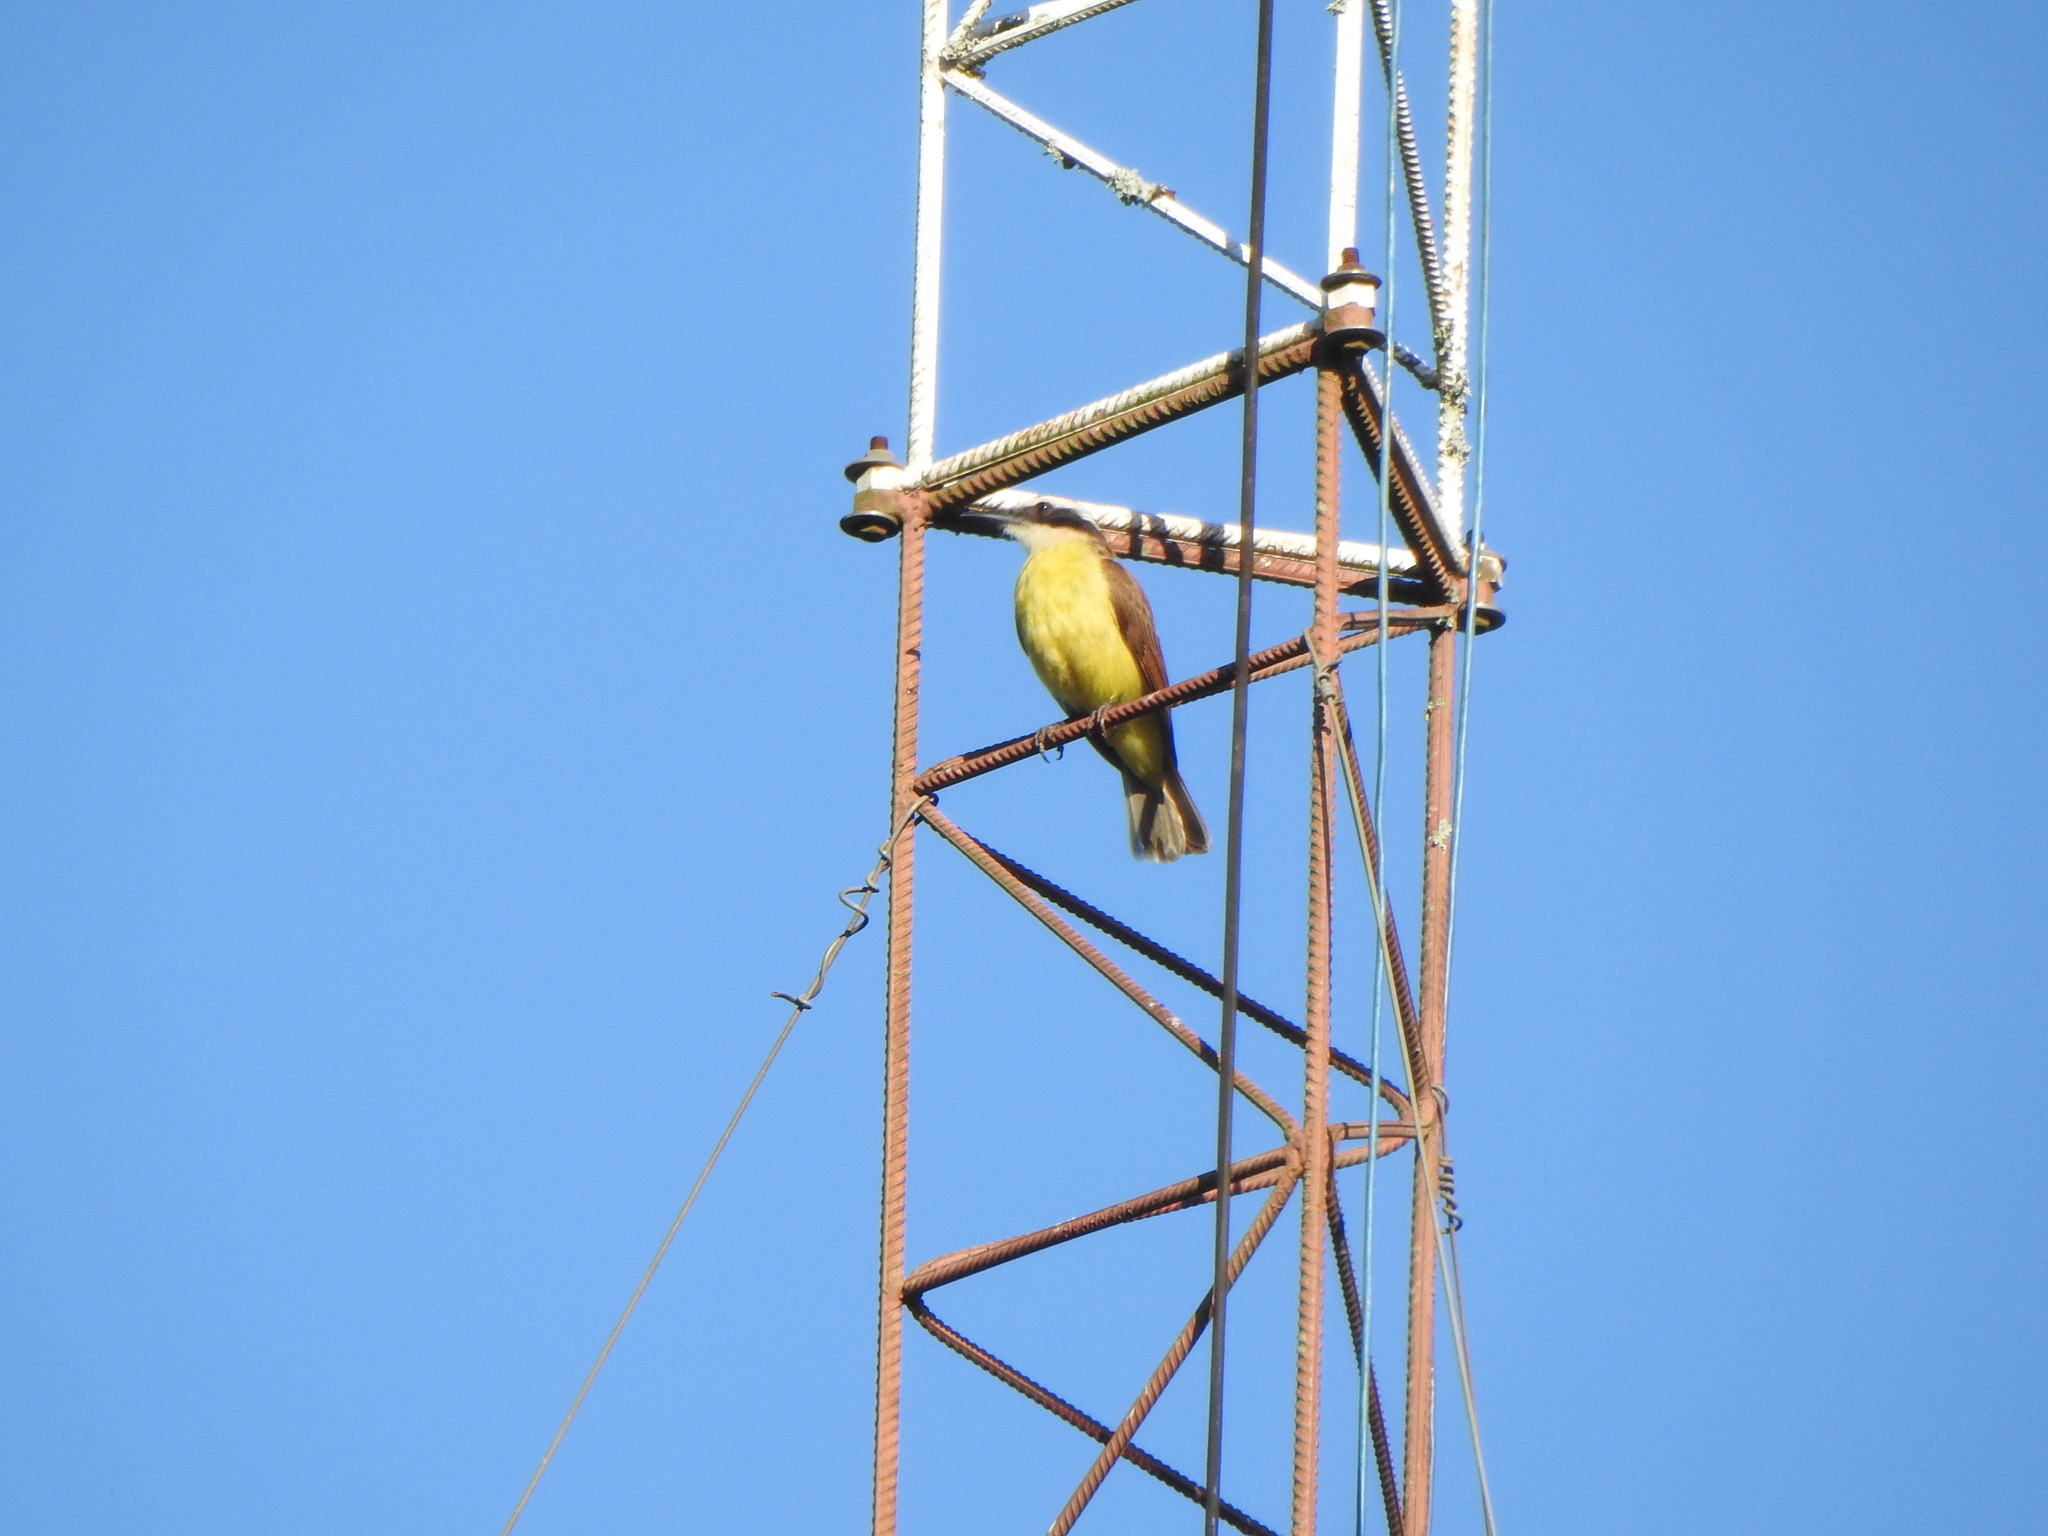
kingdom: Animalia
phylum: Chordata
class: Aves
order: Passeriformes
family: Tyrannidae
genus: Pitangus
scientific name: Pitangus sulphuratus
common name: Great kiskadee
